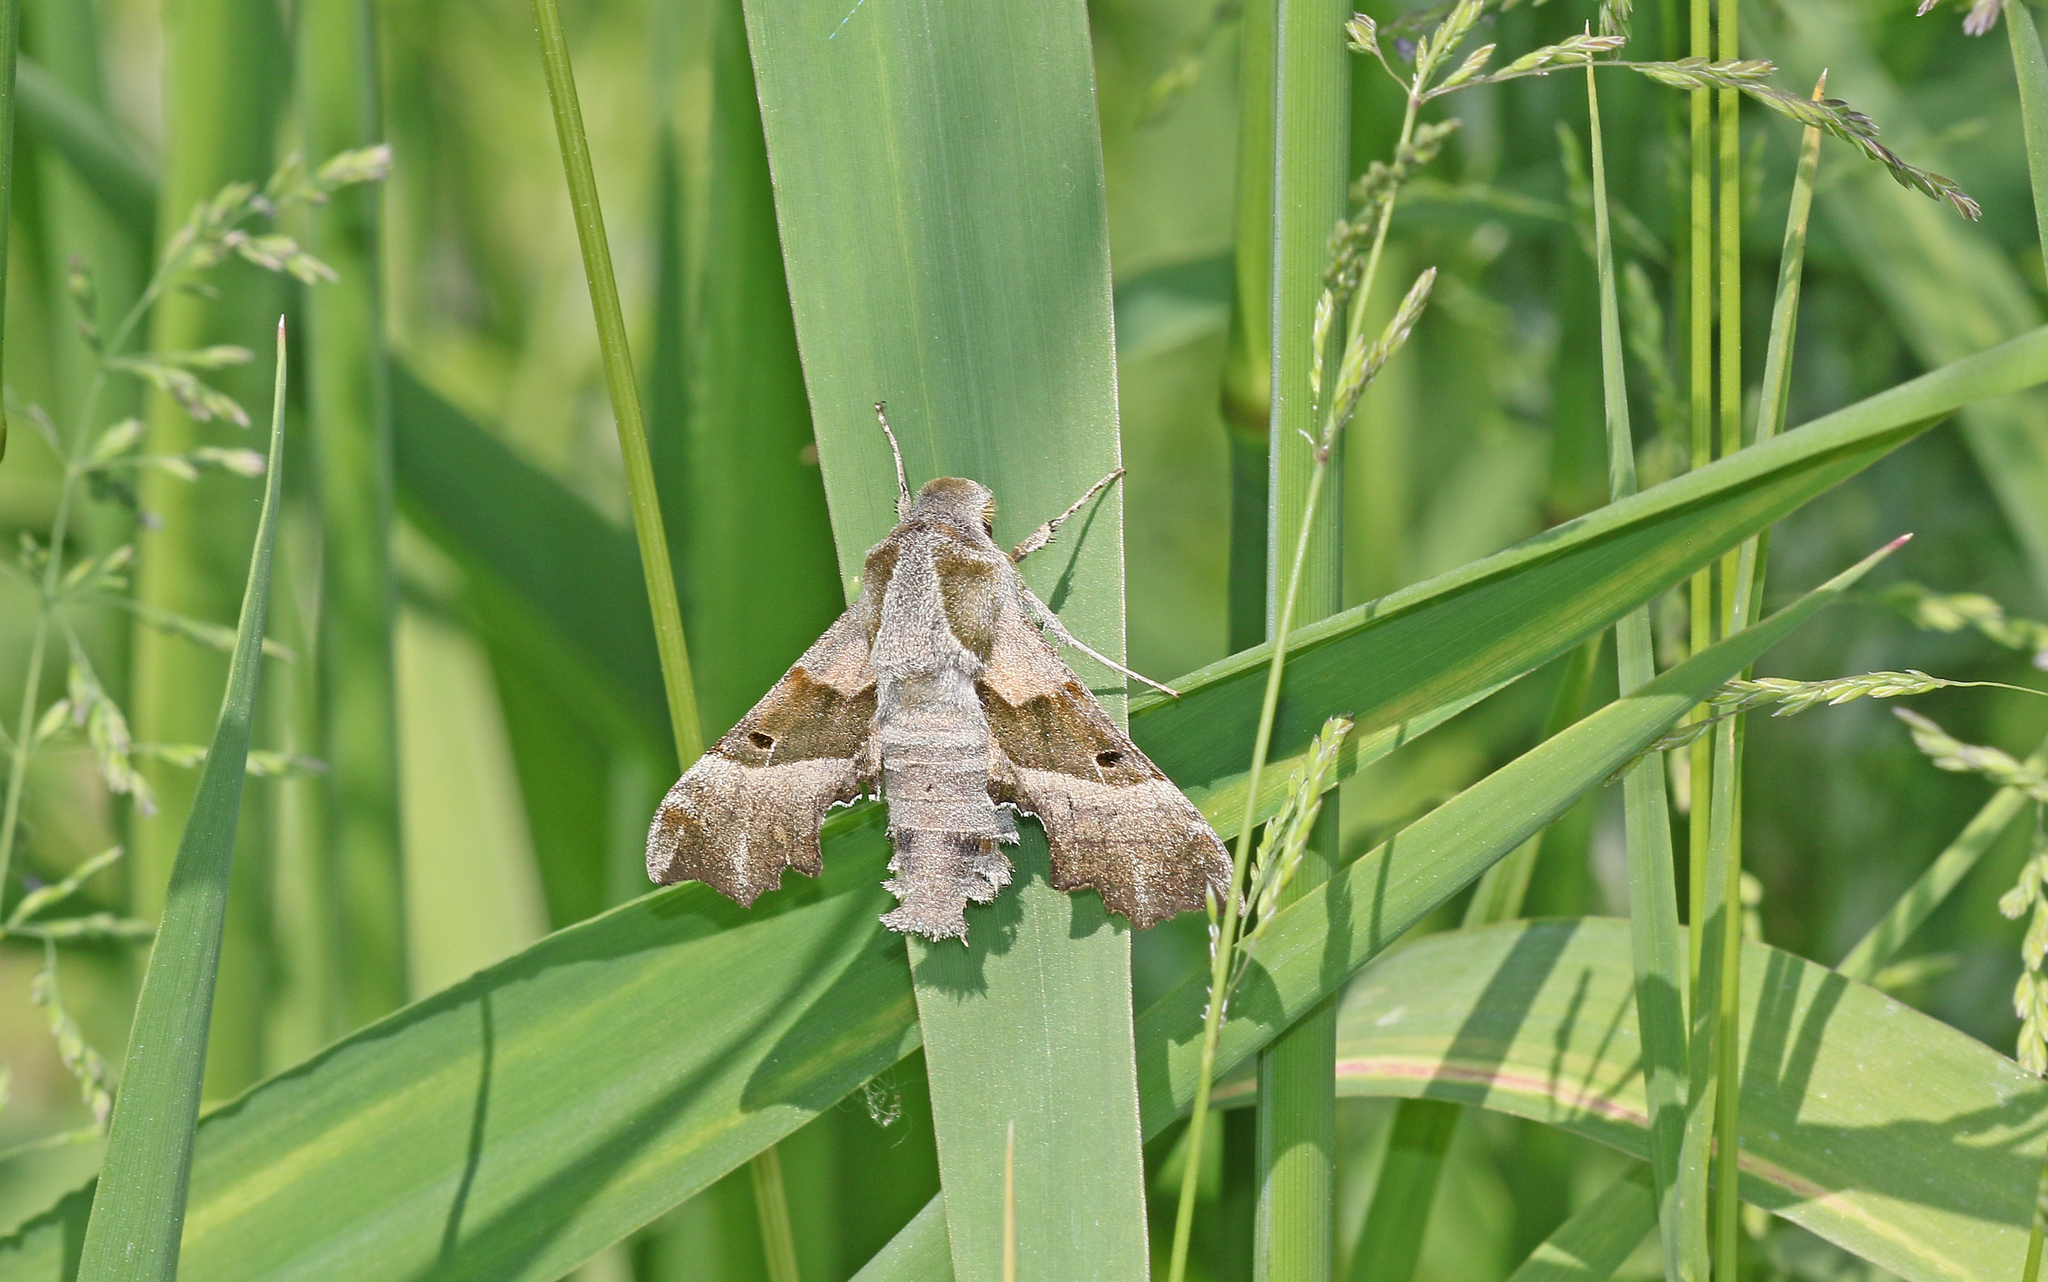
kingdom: Animalia
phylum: Arthropoda
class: Insecta
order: Lepidoptera
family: Sphingidae
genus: Proserpinus
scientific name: Proserpinus proserpina
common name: Willowherb hawkmoth
